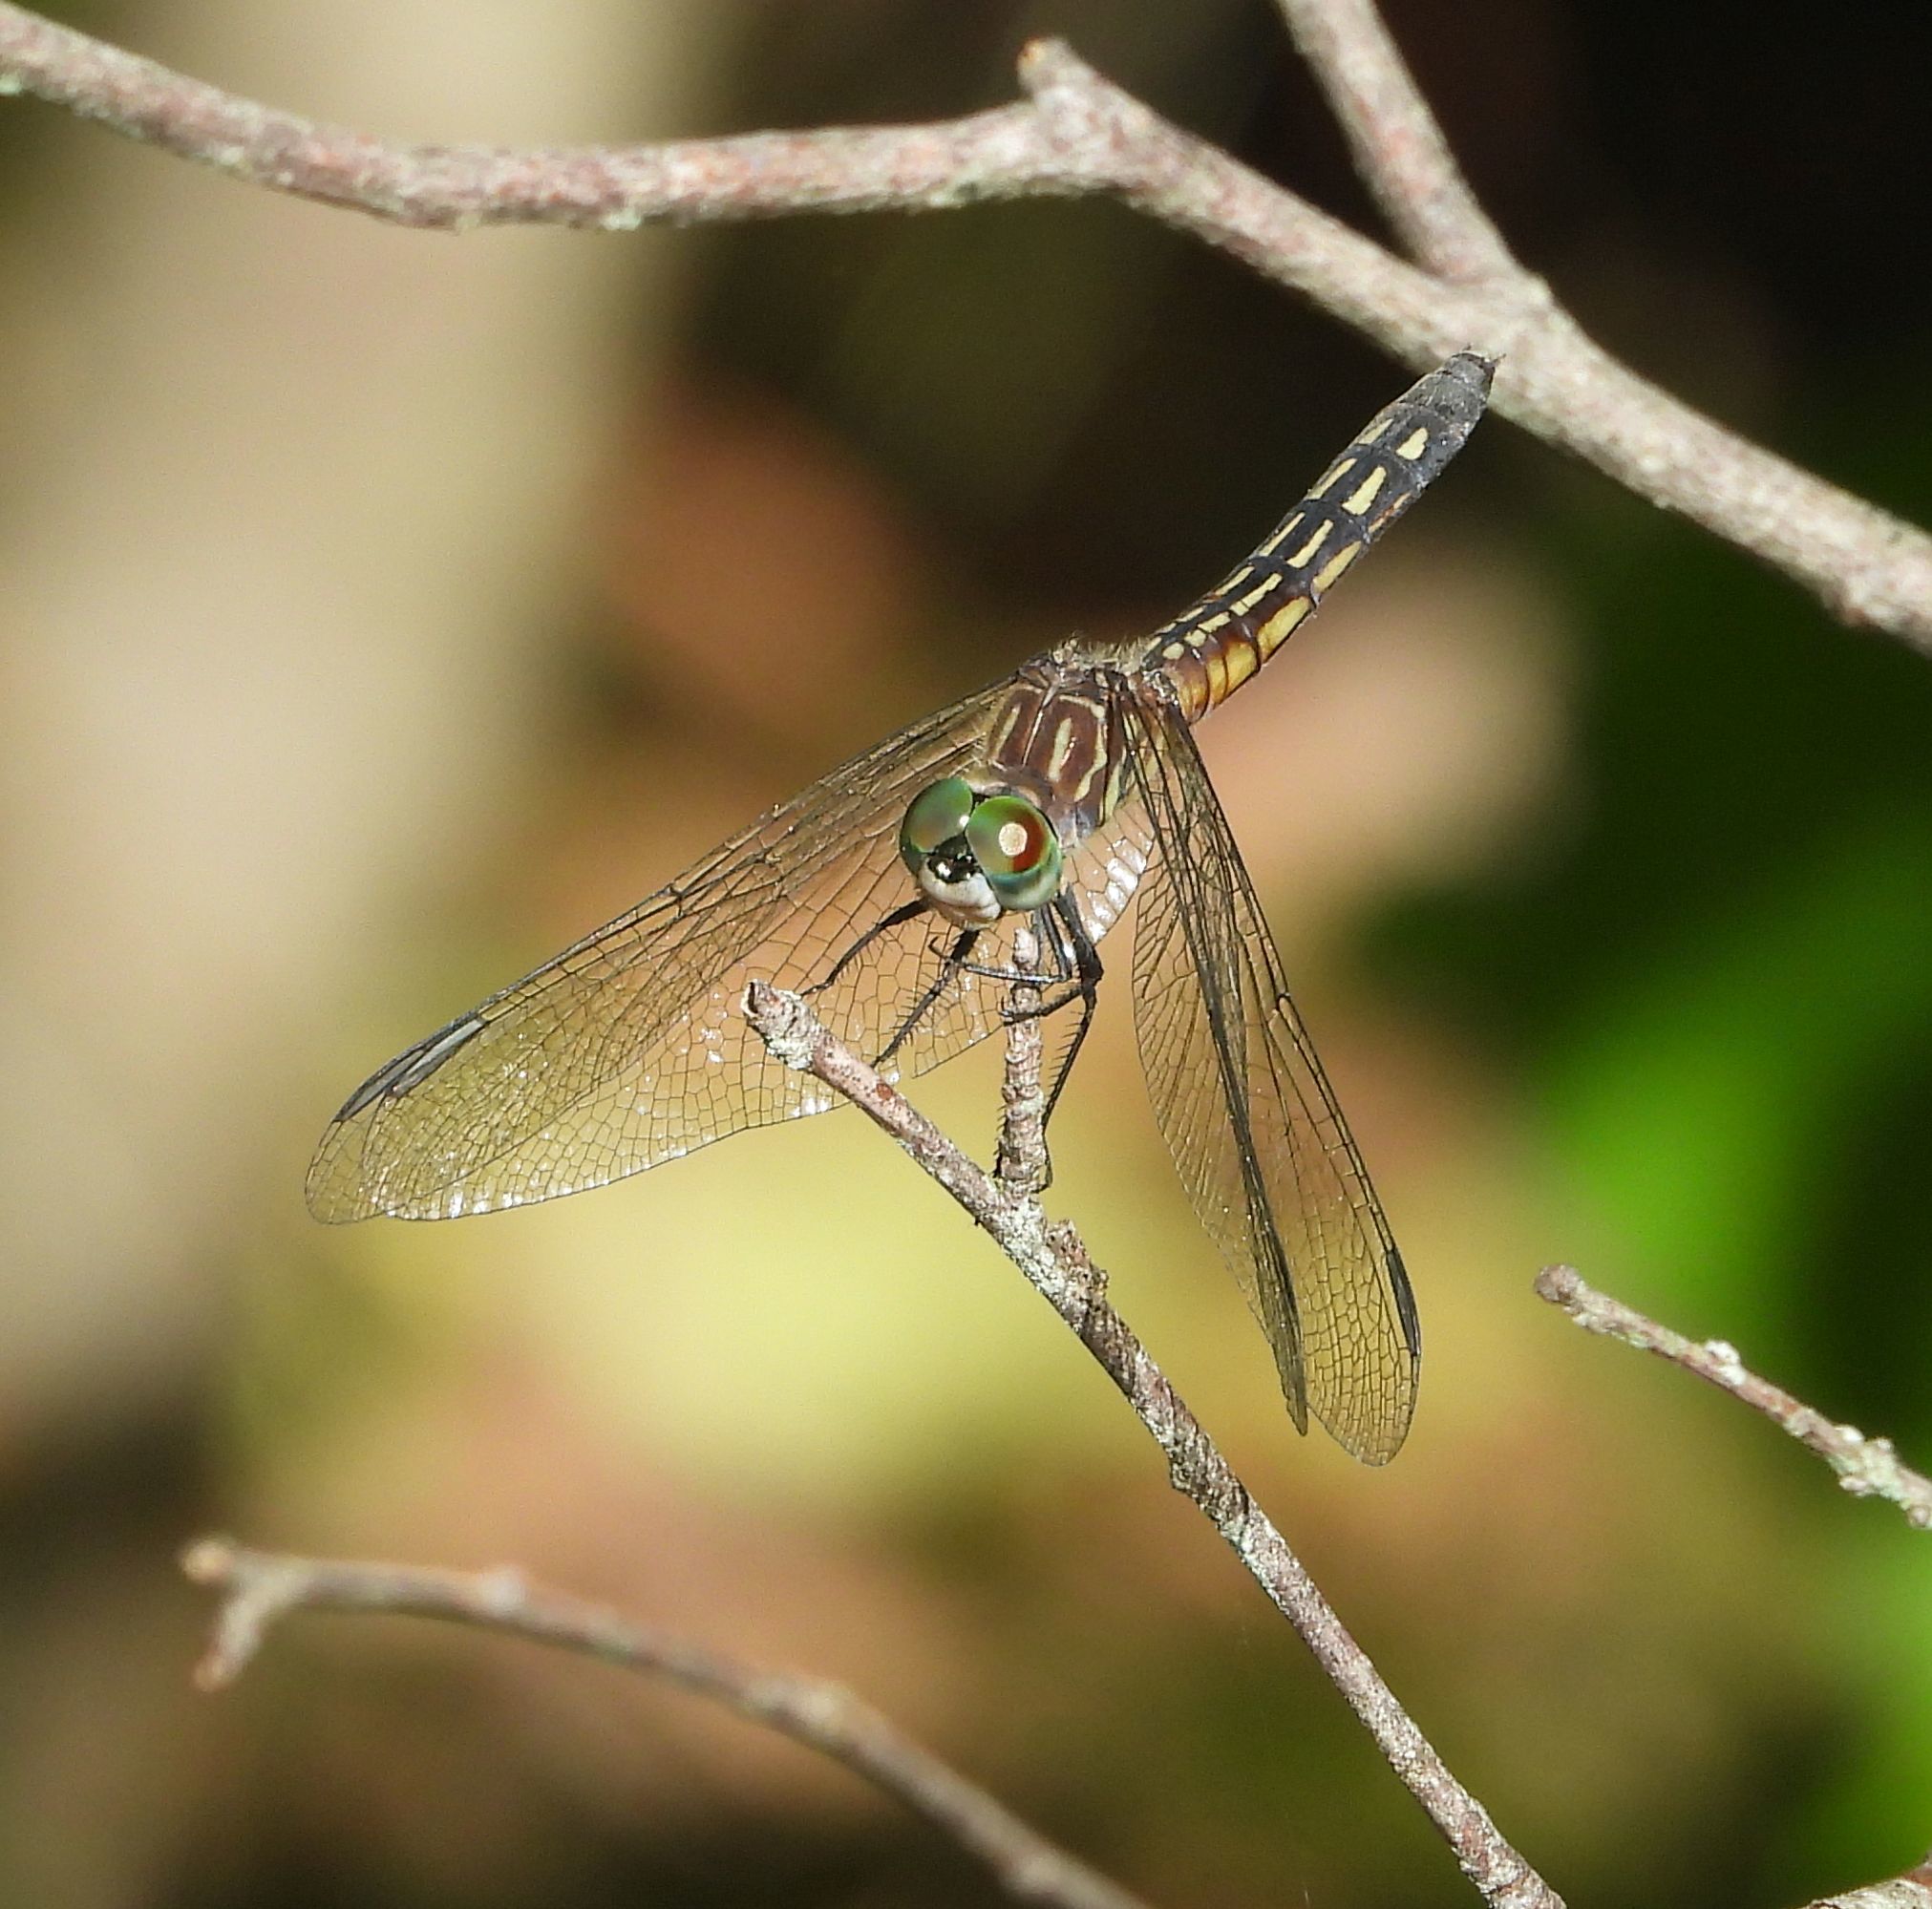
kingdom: Animalia
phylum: Arthropoda
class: Insecta
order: Odonata
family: Libellulidae
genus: Pachydiplax
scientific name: Pachydiplax longipennis
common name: Blue dasher
